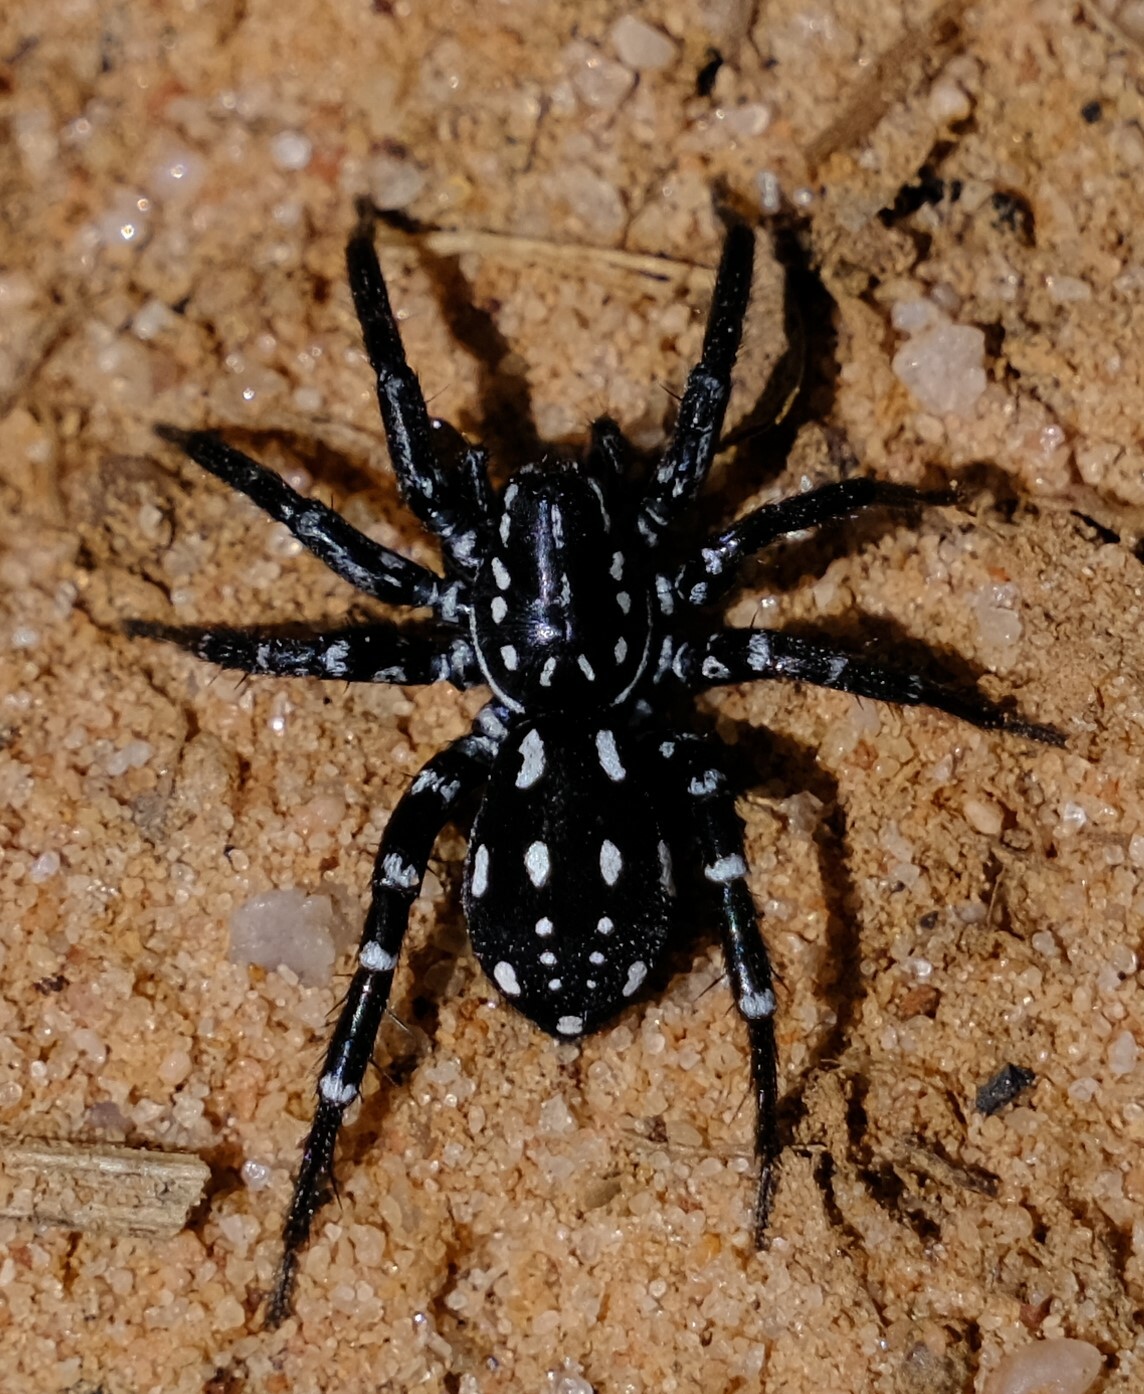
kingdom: Animalia
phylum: Arthropoda
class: Arachnida
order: Araneae
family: Corinnidae
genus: Nyssus
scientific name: Nyssus albopunctatus
